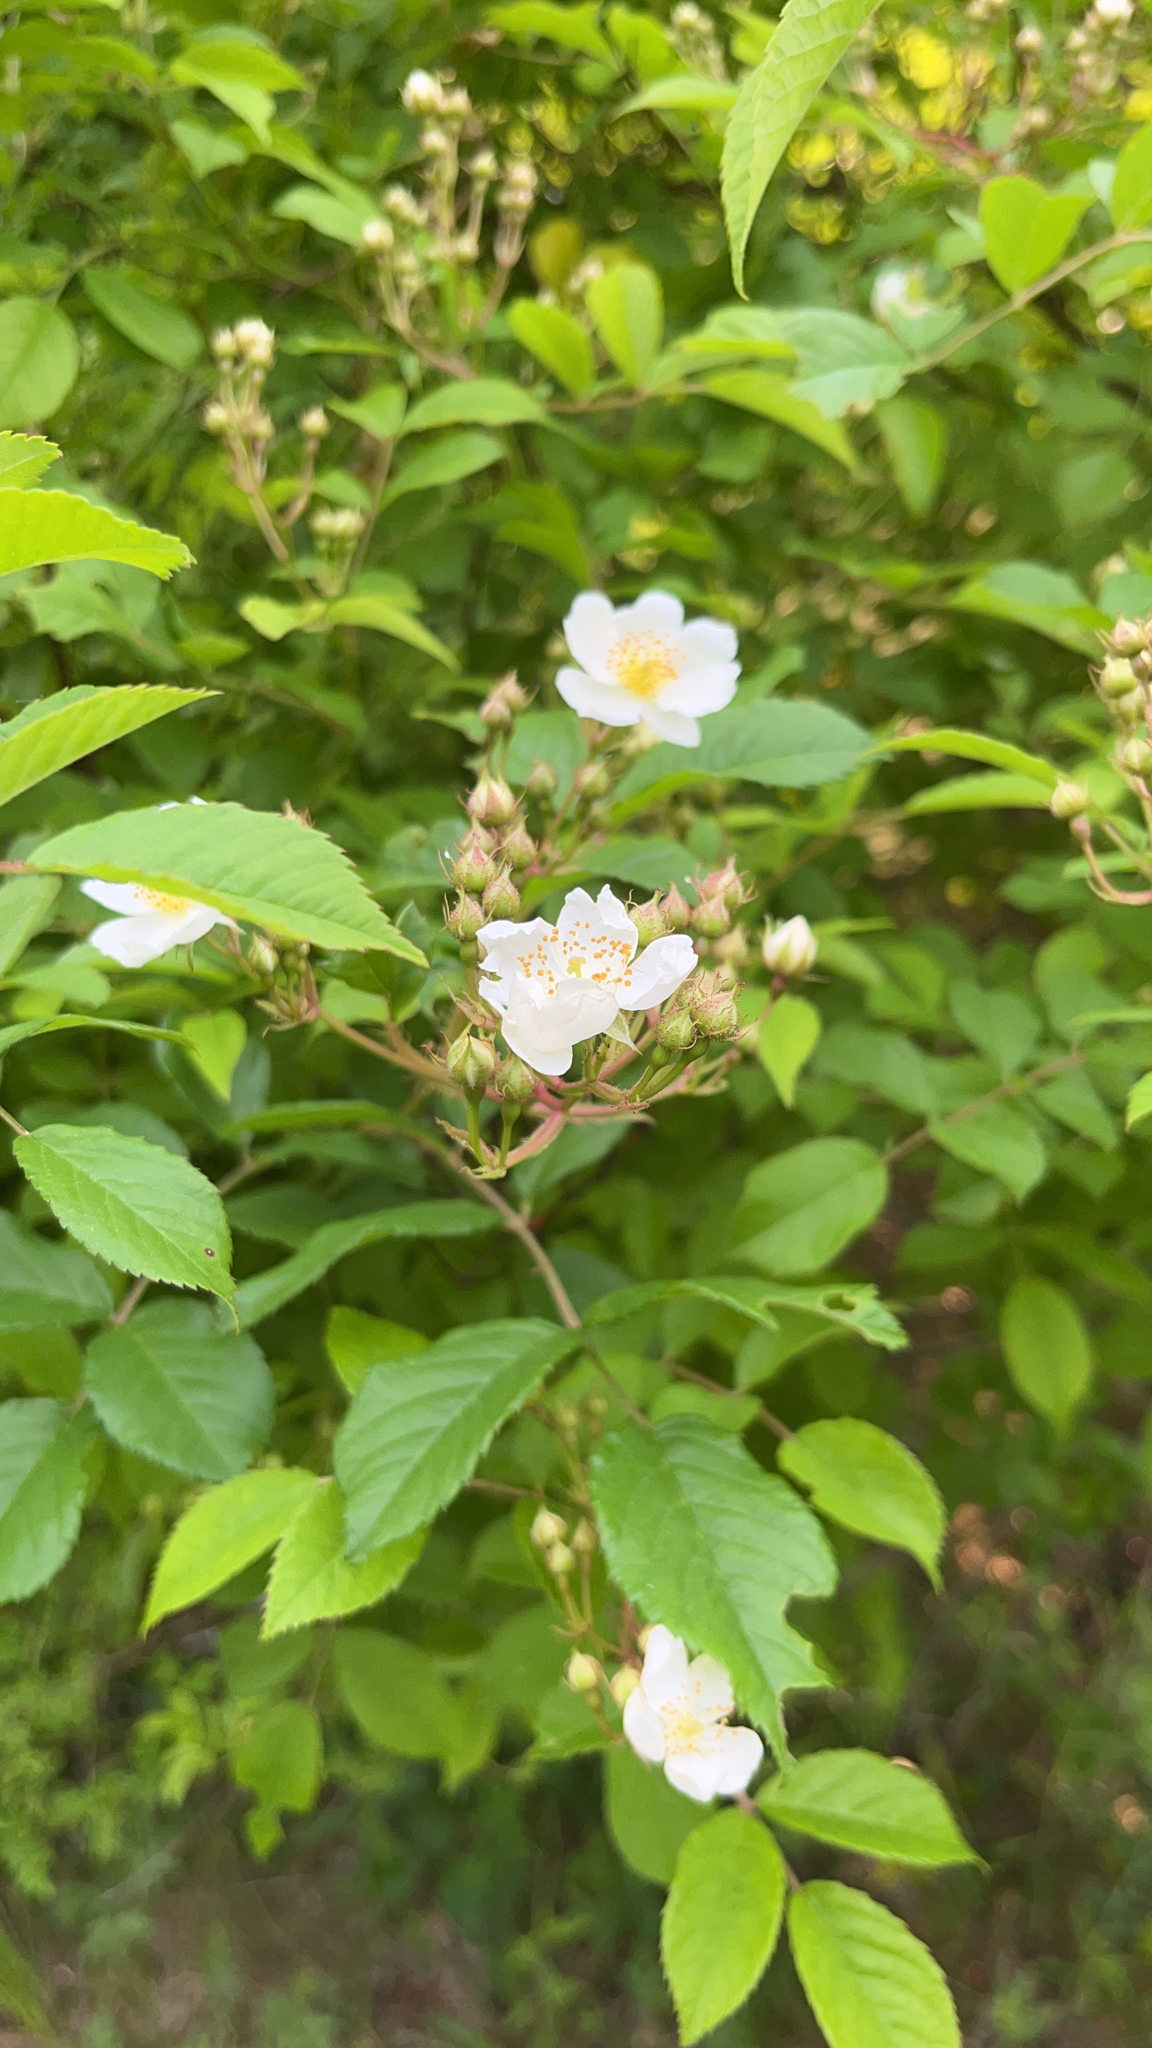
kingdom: Plantae
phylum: Tracheophyta
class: Magnoliopsida
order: Rosales
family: Rosaceae
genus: Rosa
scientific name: Rosa multiflora
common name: Multiflora rose
